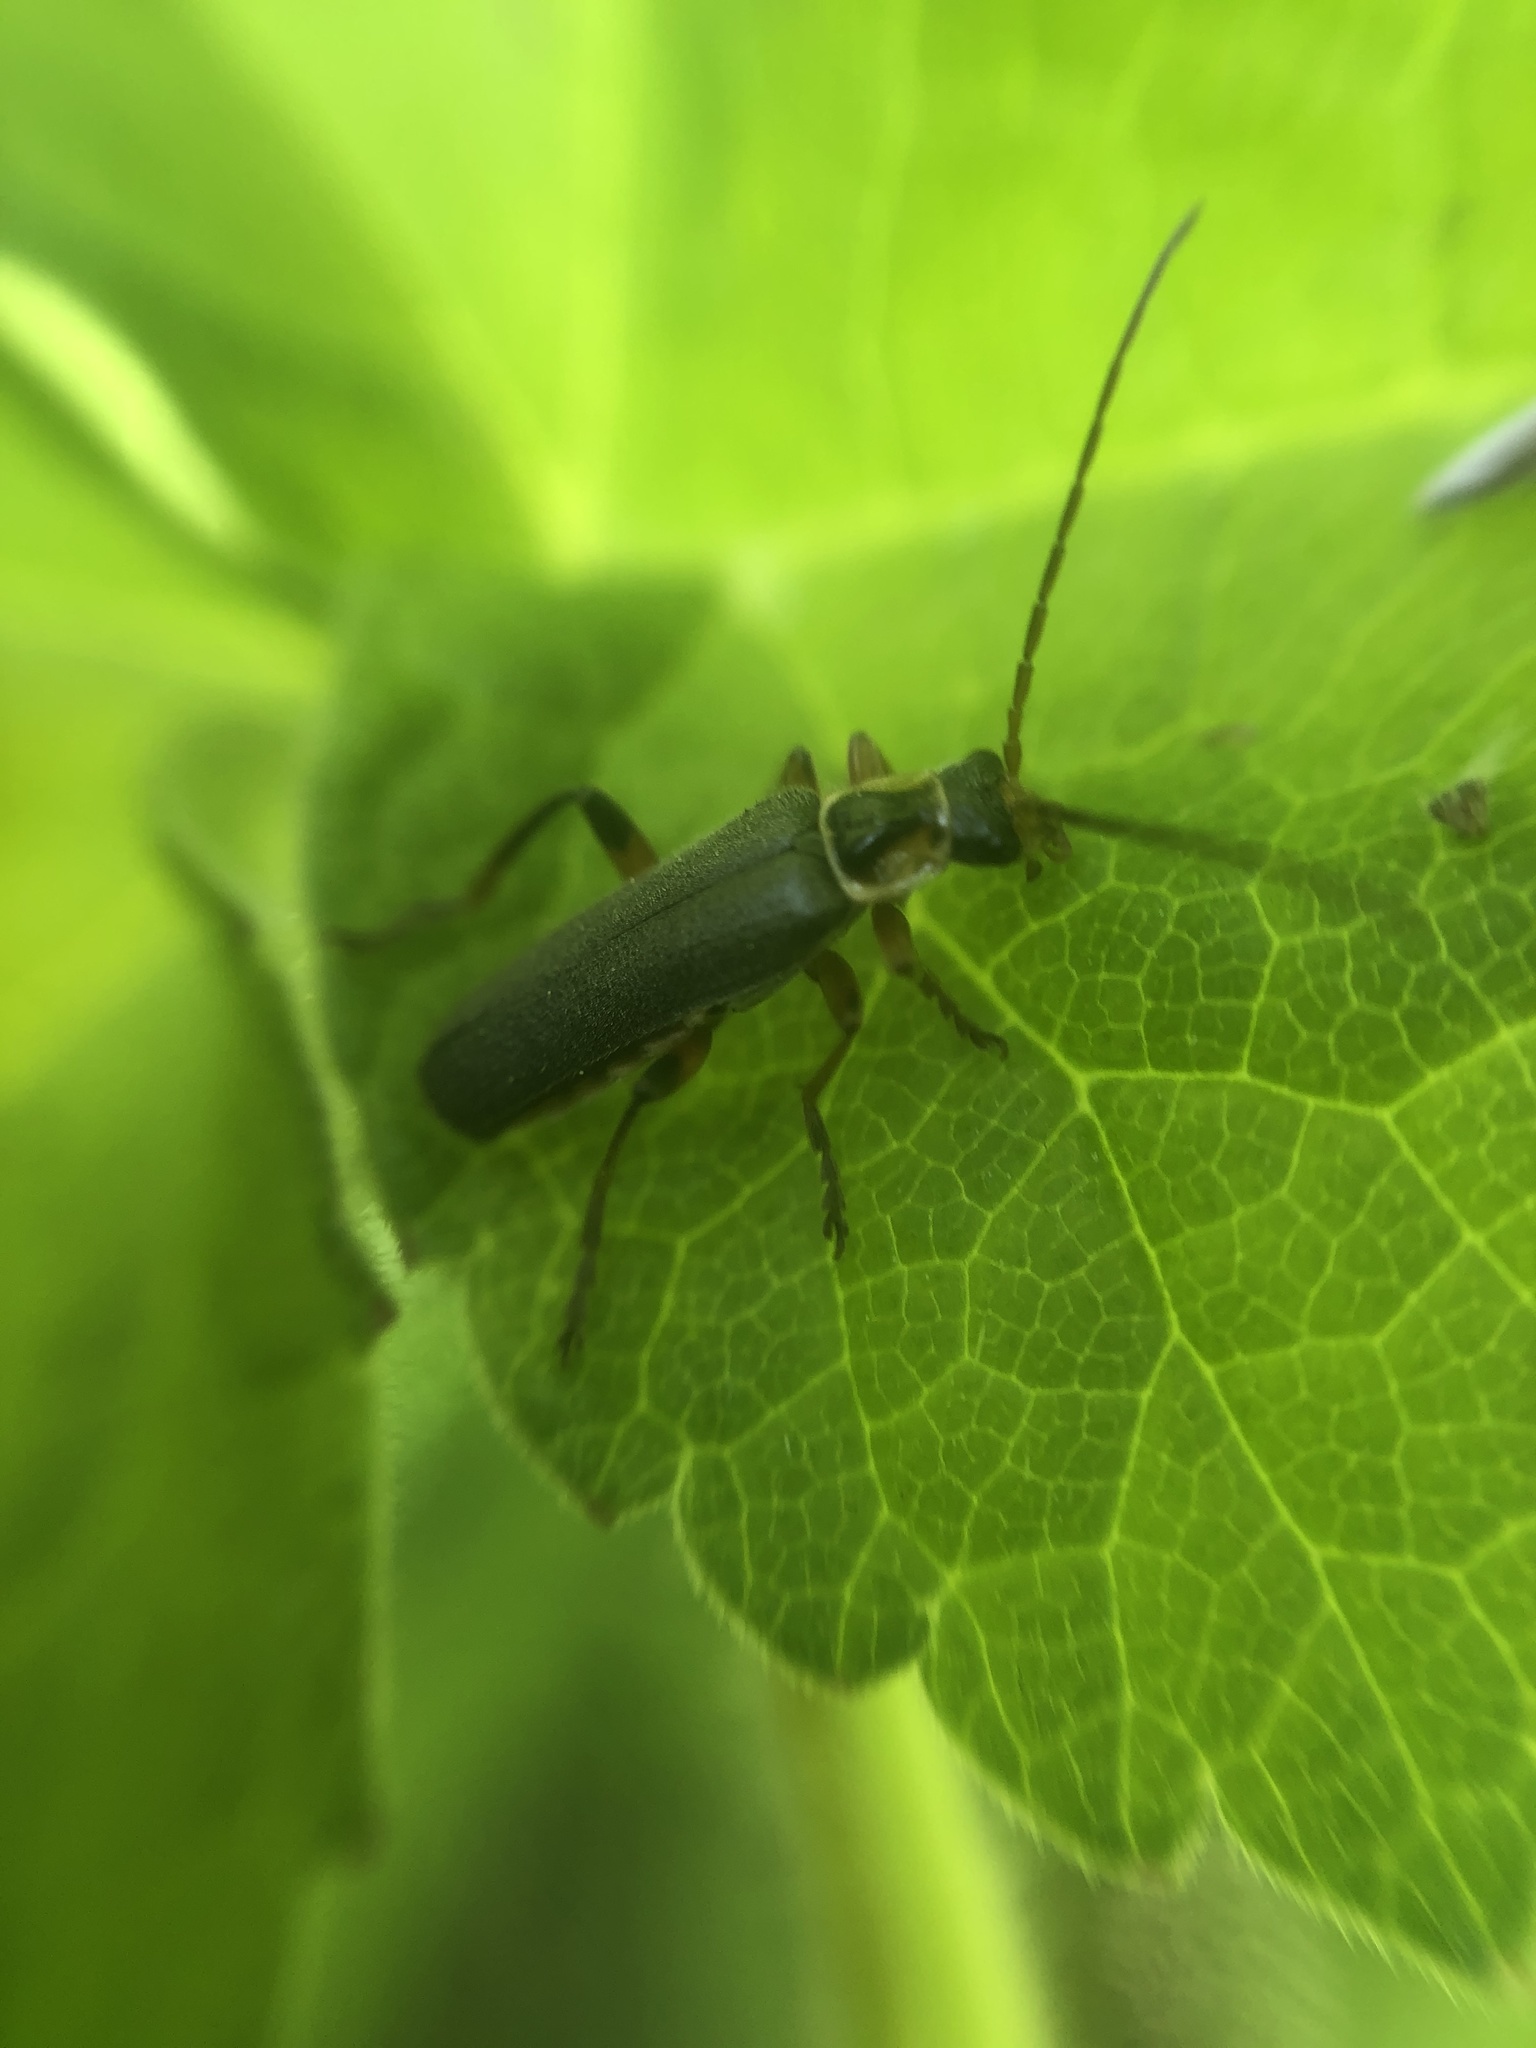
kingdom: Animalia
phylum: Arthropoda
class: Insecta
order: Coleoptera
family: Cantharidae
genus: Cantharis
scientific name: Cantharis nigricans
